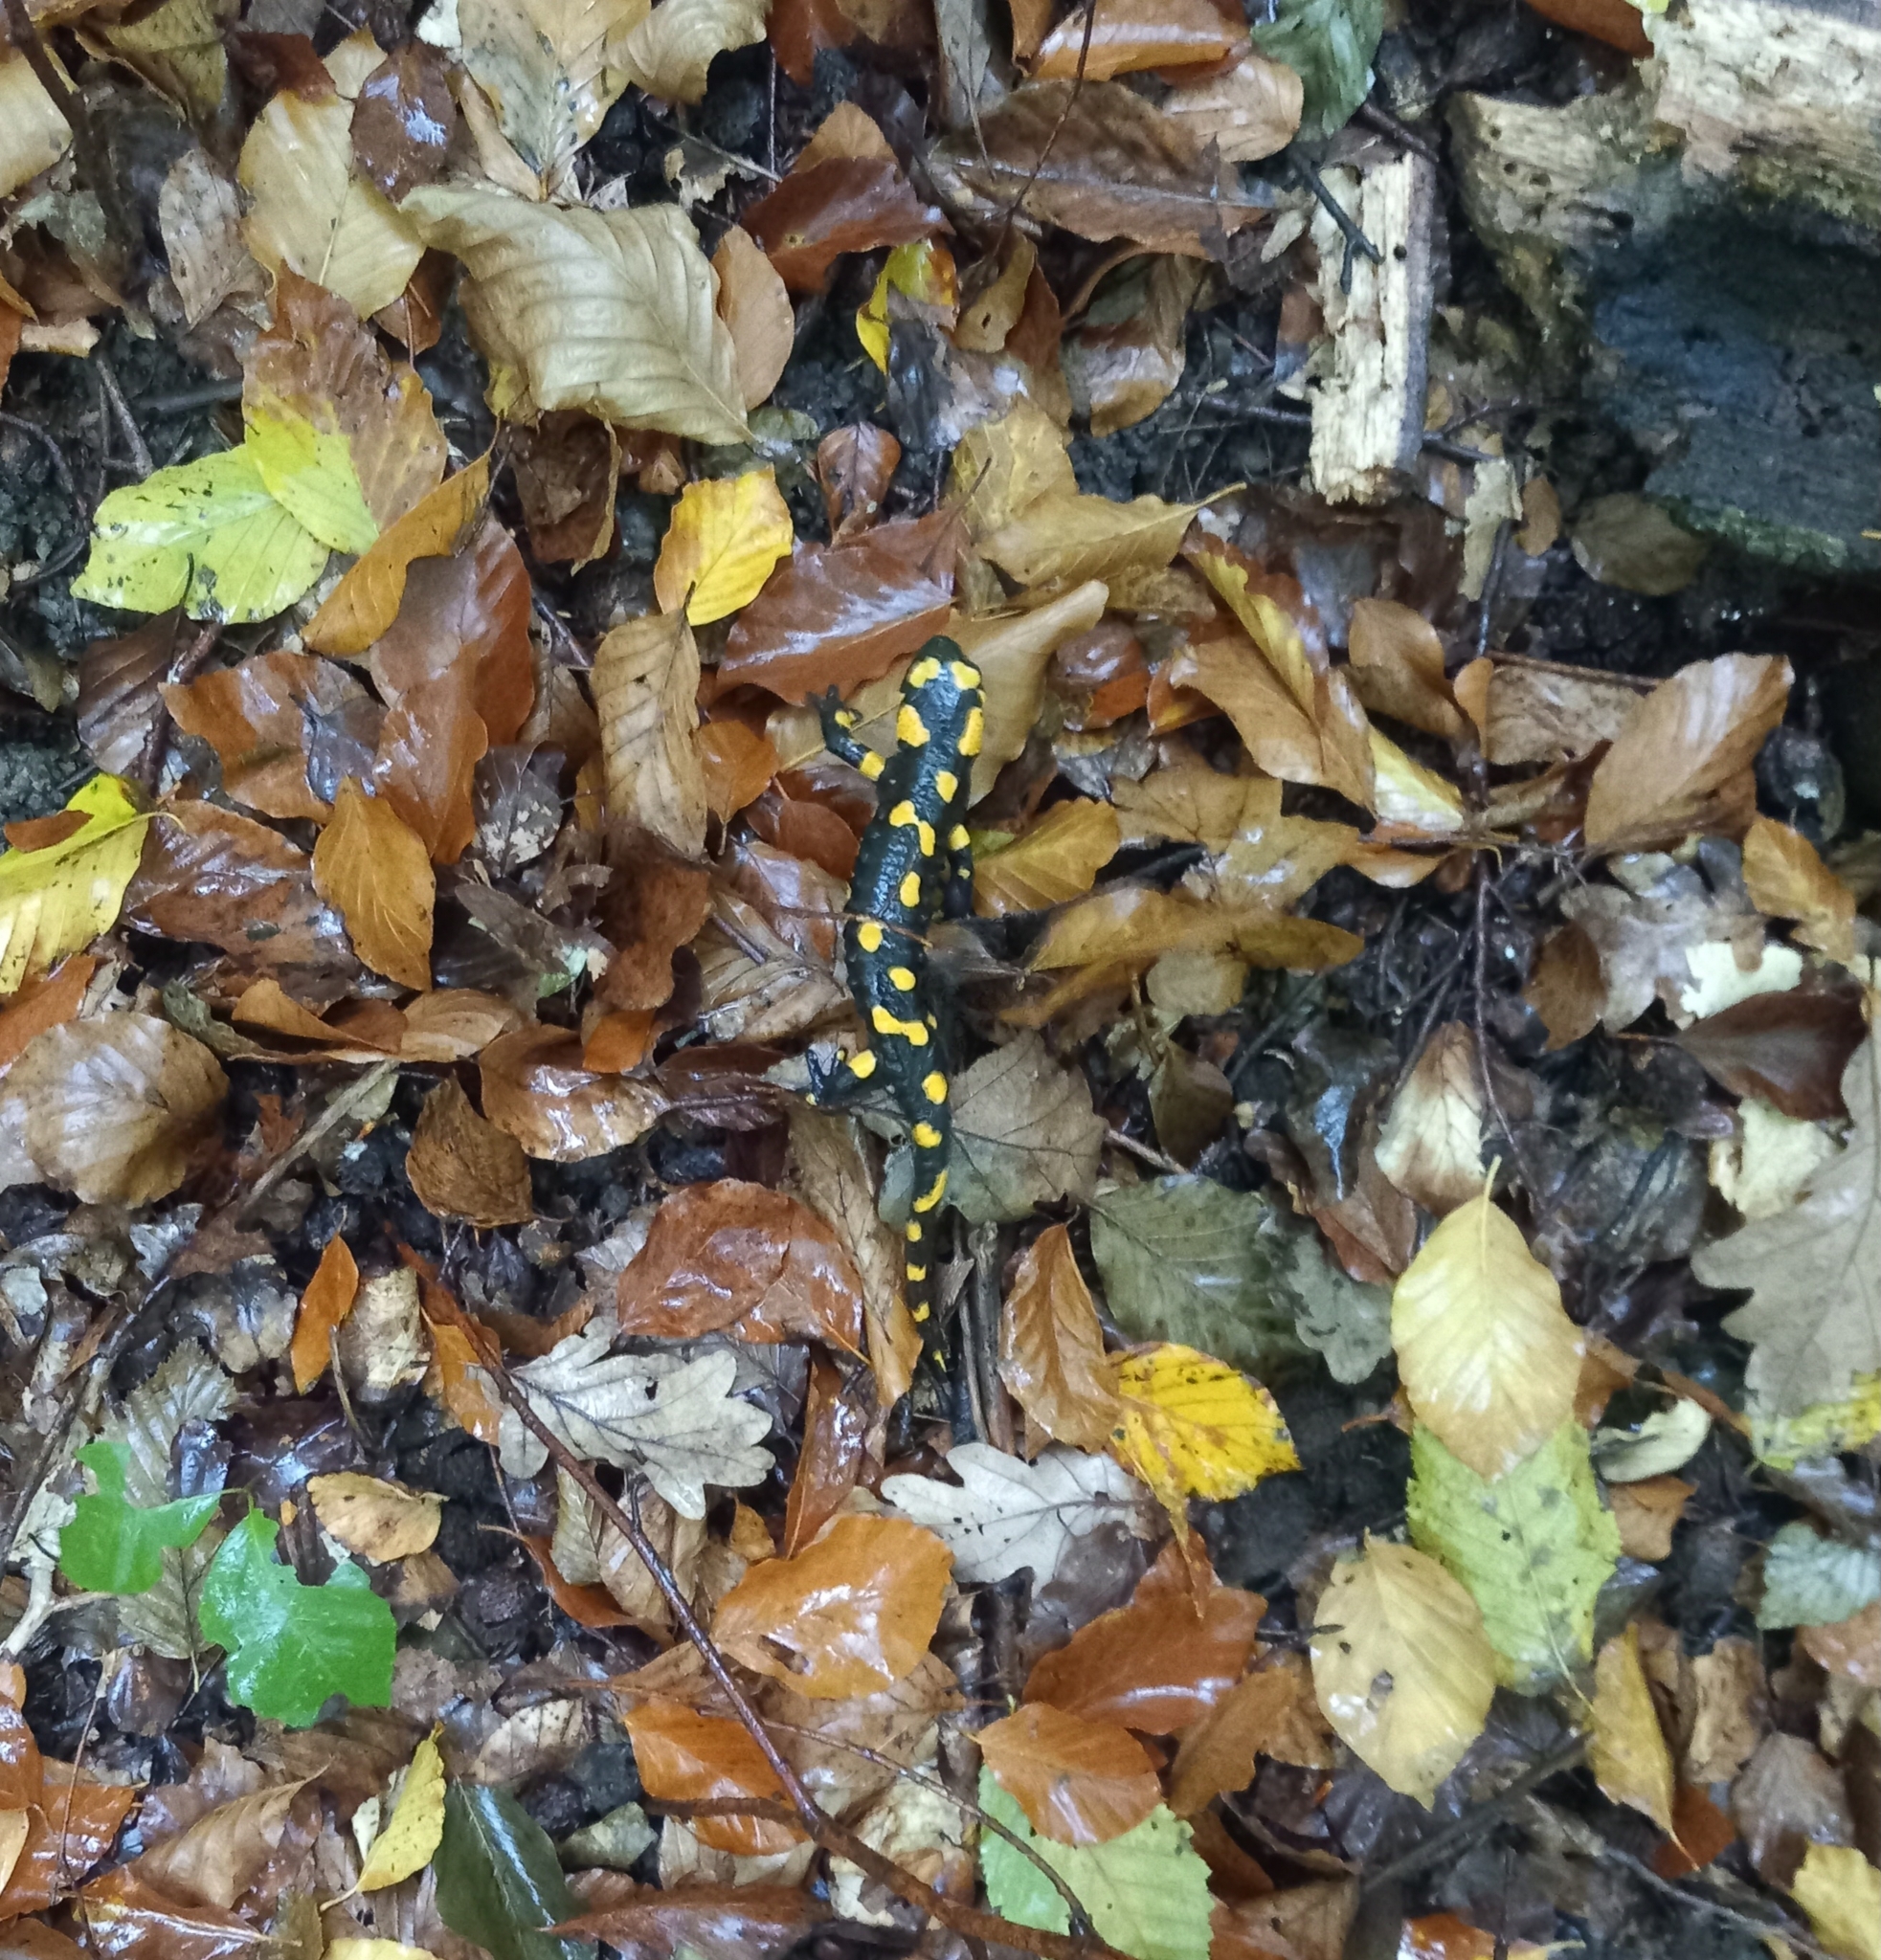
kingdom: Animalia
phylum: Chordata
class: Amphibia
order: Caudata
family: Salamandridae
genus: Salamandra
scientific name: Salamandra salamandra
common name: Fire salamander
